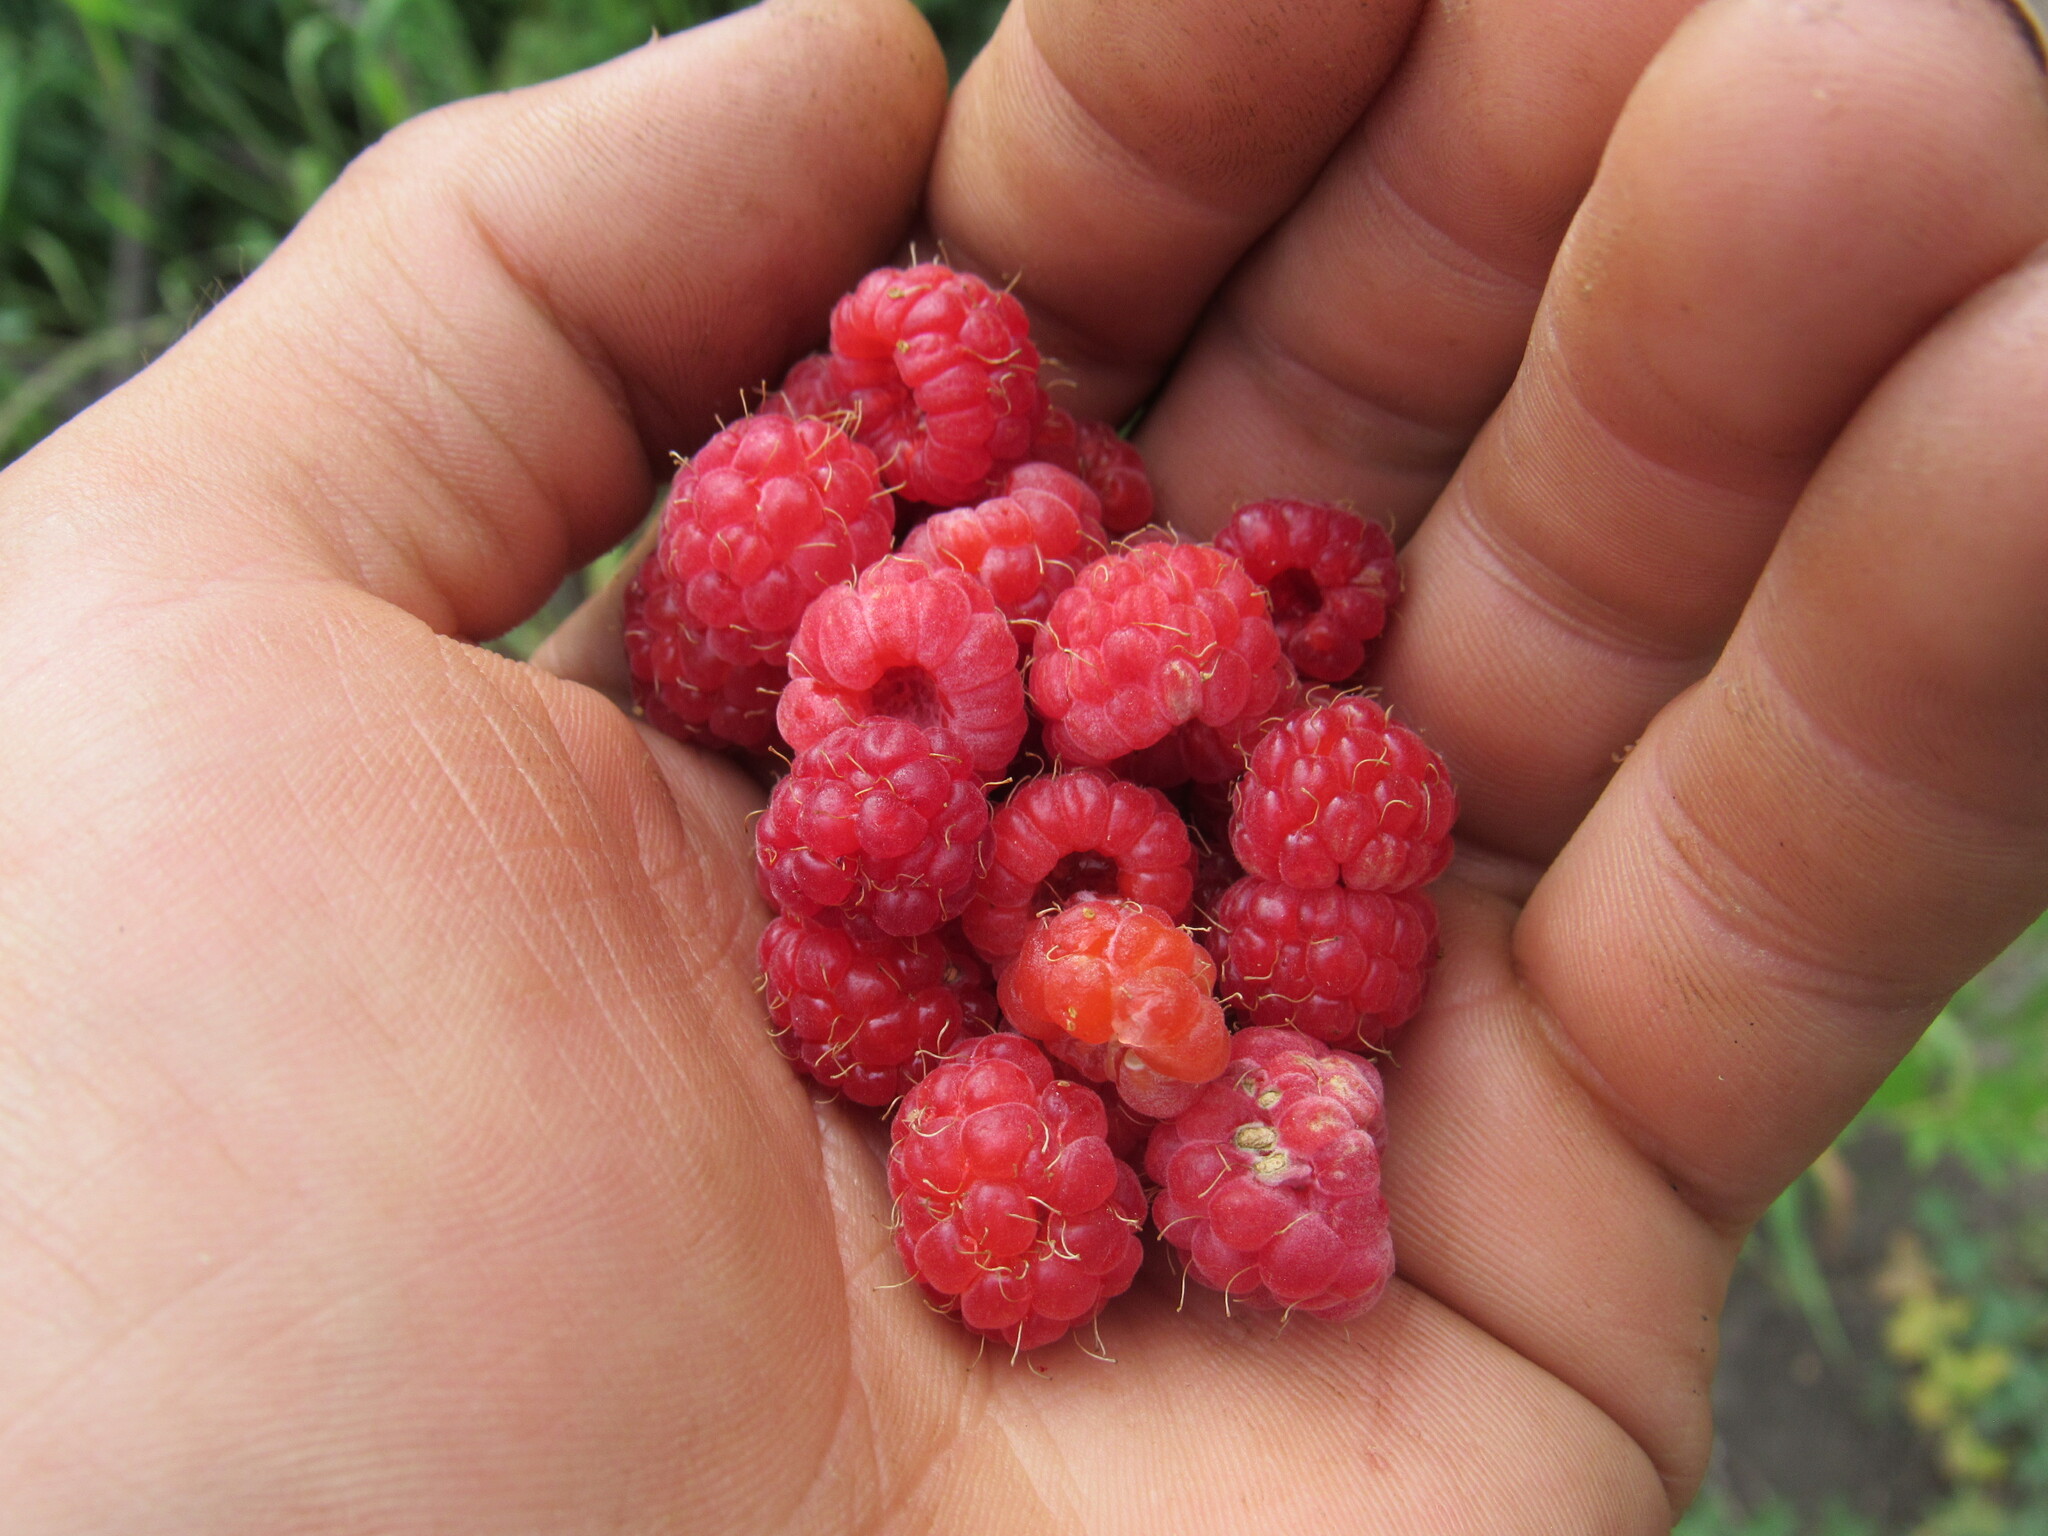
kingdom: Plantae
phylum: Tracheophyta
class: Magnoliopsida
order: Rosales
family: Rosaceae
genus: Rubus
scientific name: Rubus idaeus
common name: Raspberry
